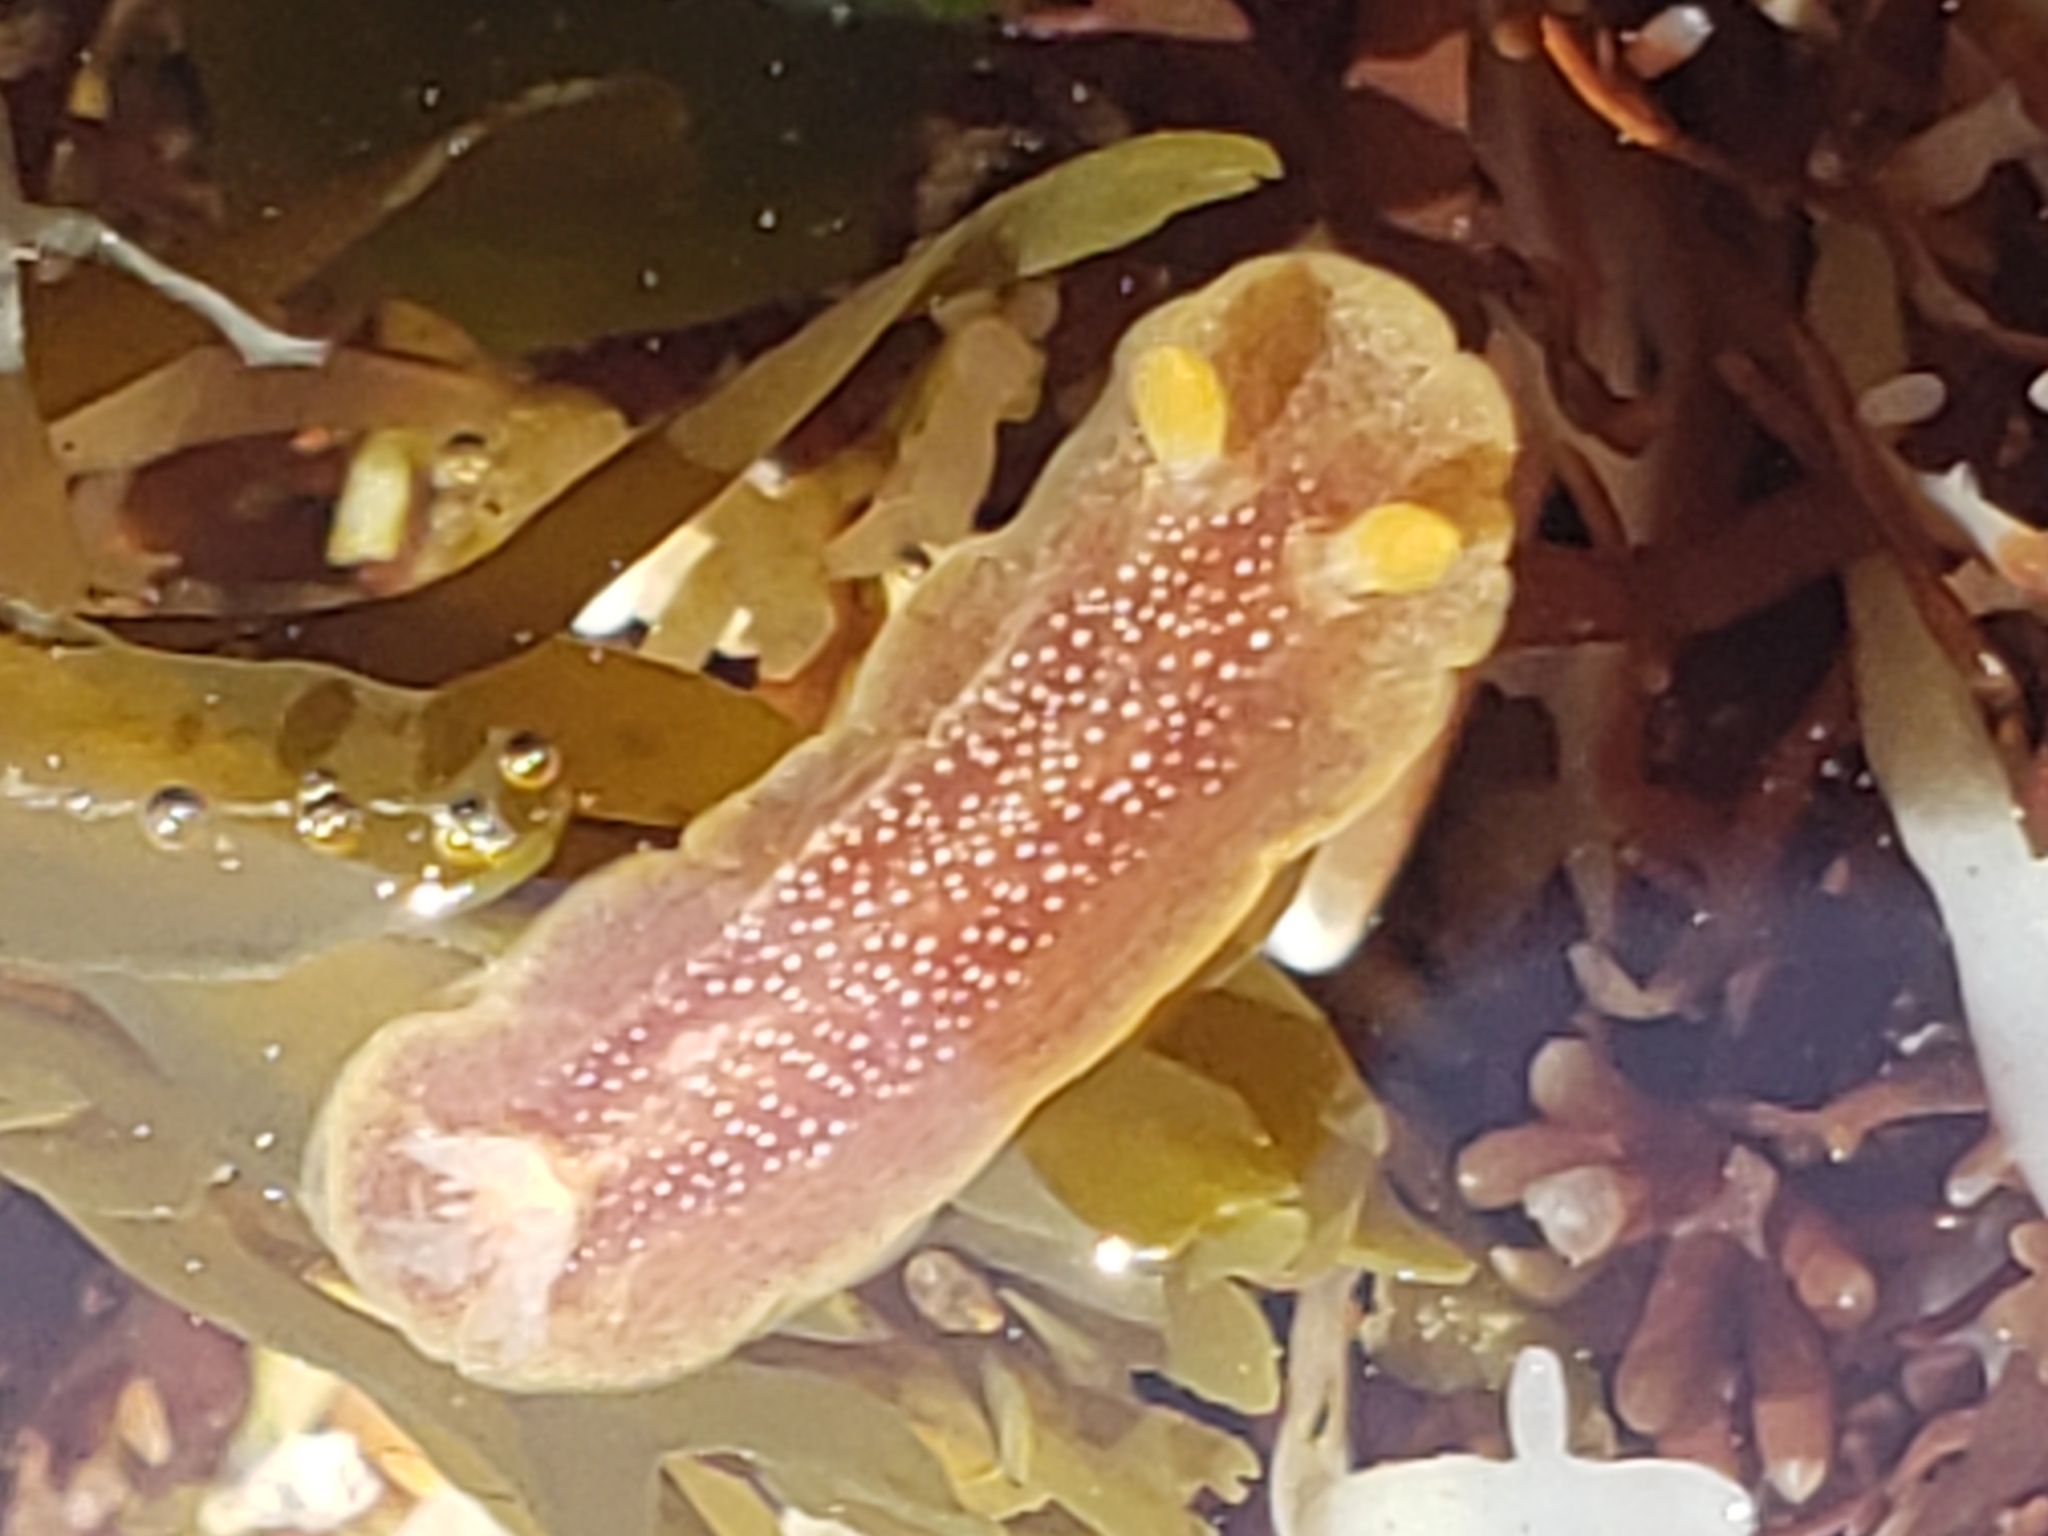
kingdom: Animalia
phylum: Mollusca
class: Gastropoda
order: Nudibranchia
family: Dendrodorididae
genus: Doriopsilla
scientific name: Doriopsilla albopunctata
